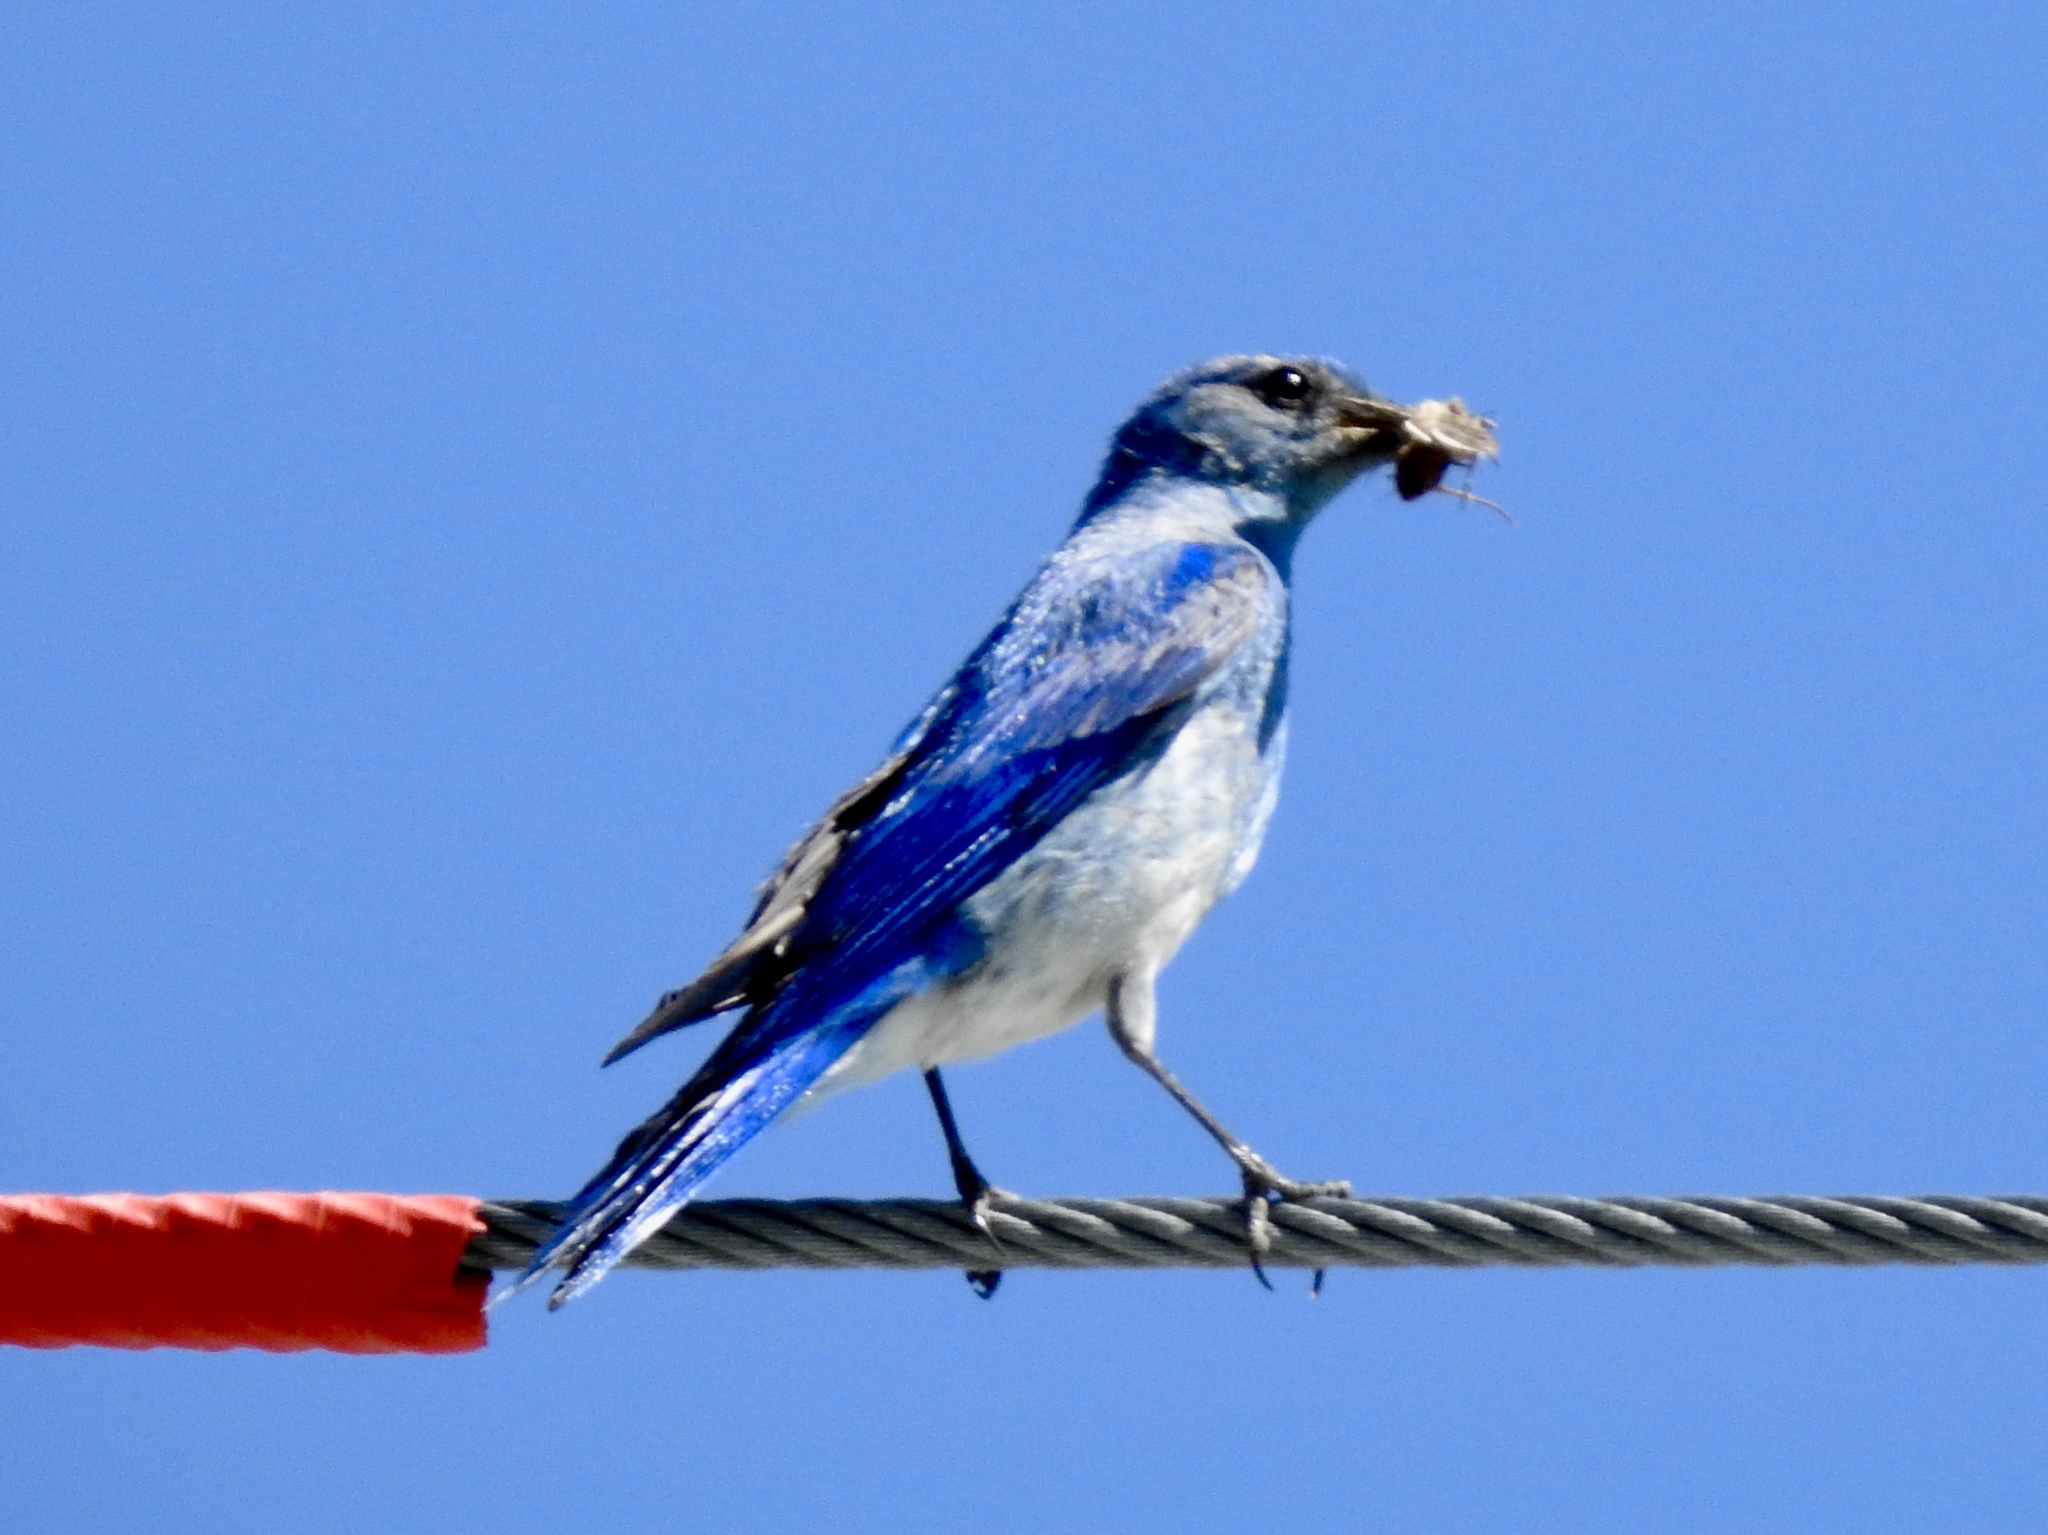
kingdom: Animalia
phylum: Chordata
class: Aves
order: Passeriformes
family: Turdidae
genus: Sialia
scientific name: Sialia currucoides
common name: Mountain bluebird
